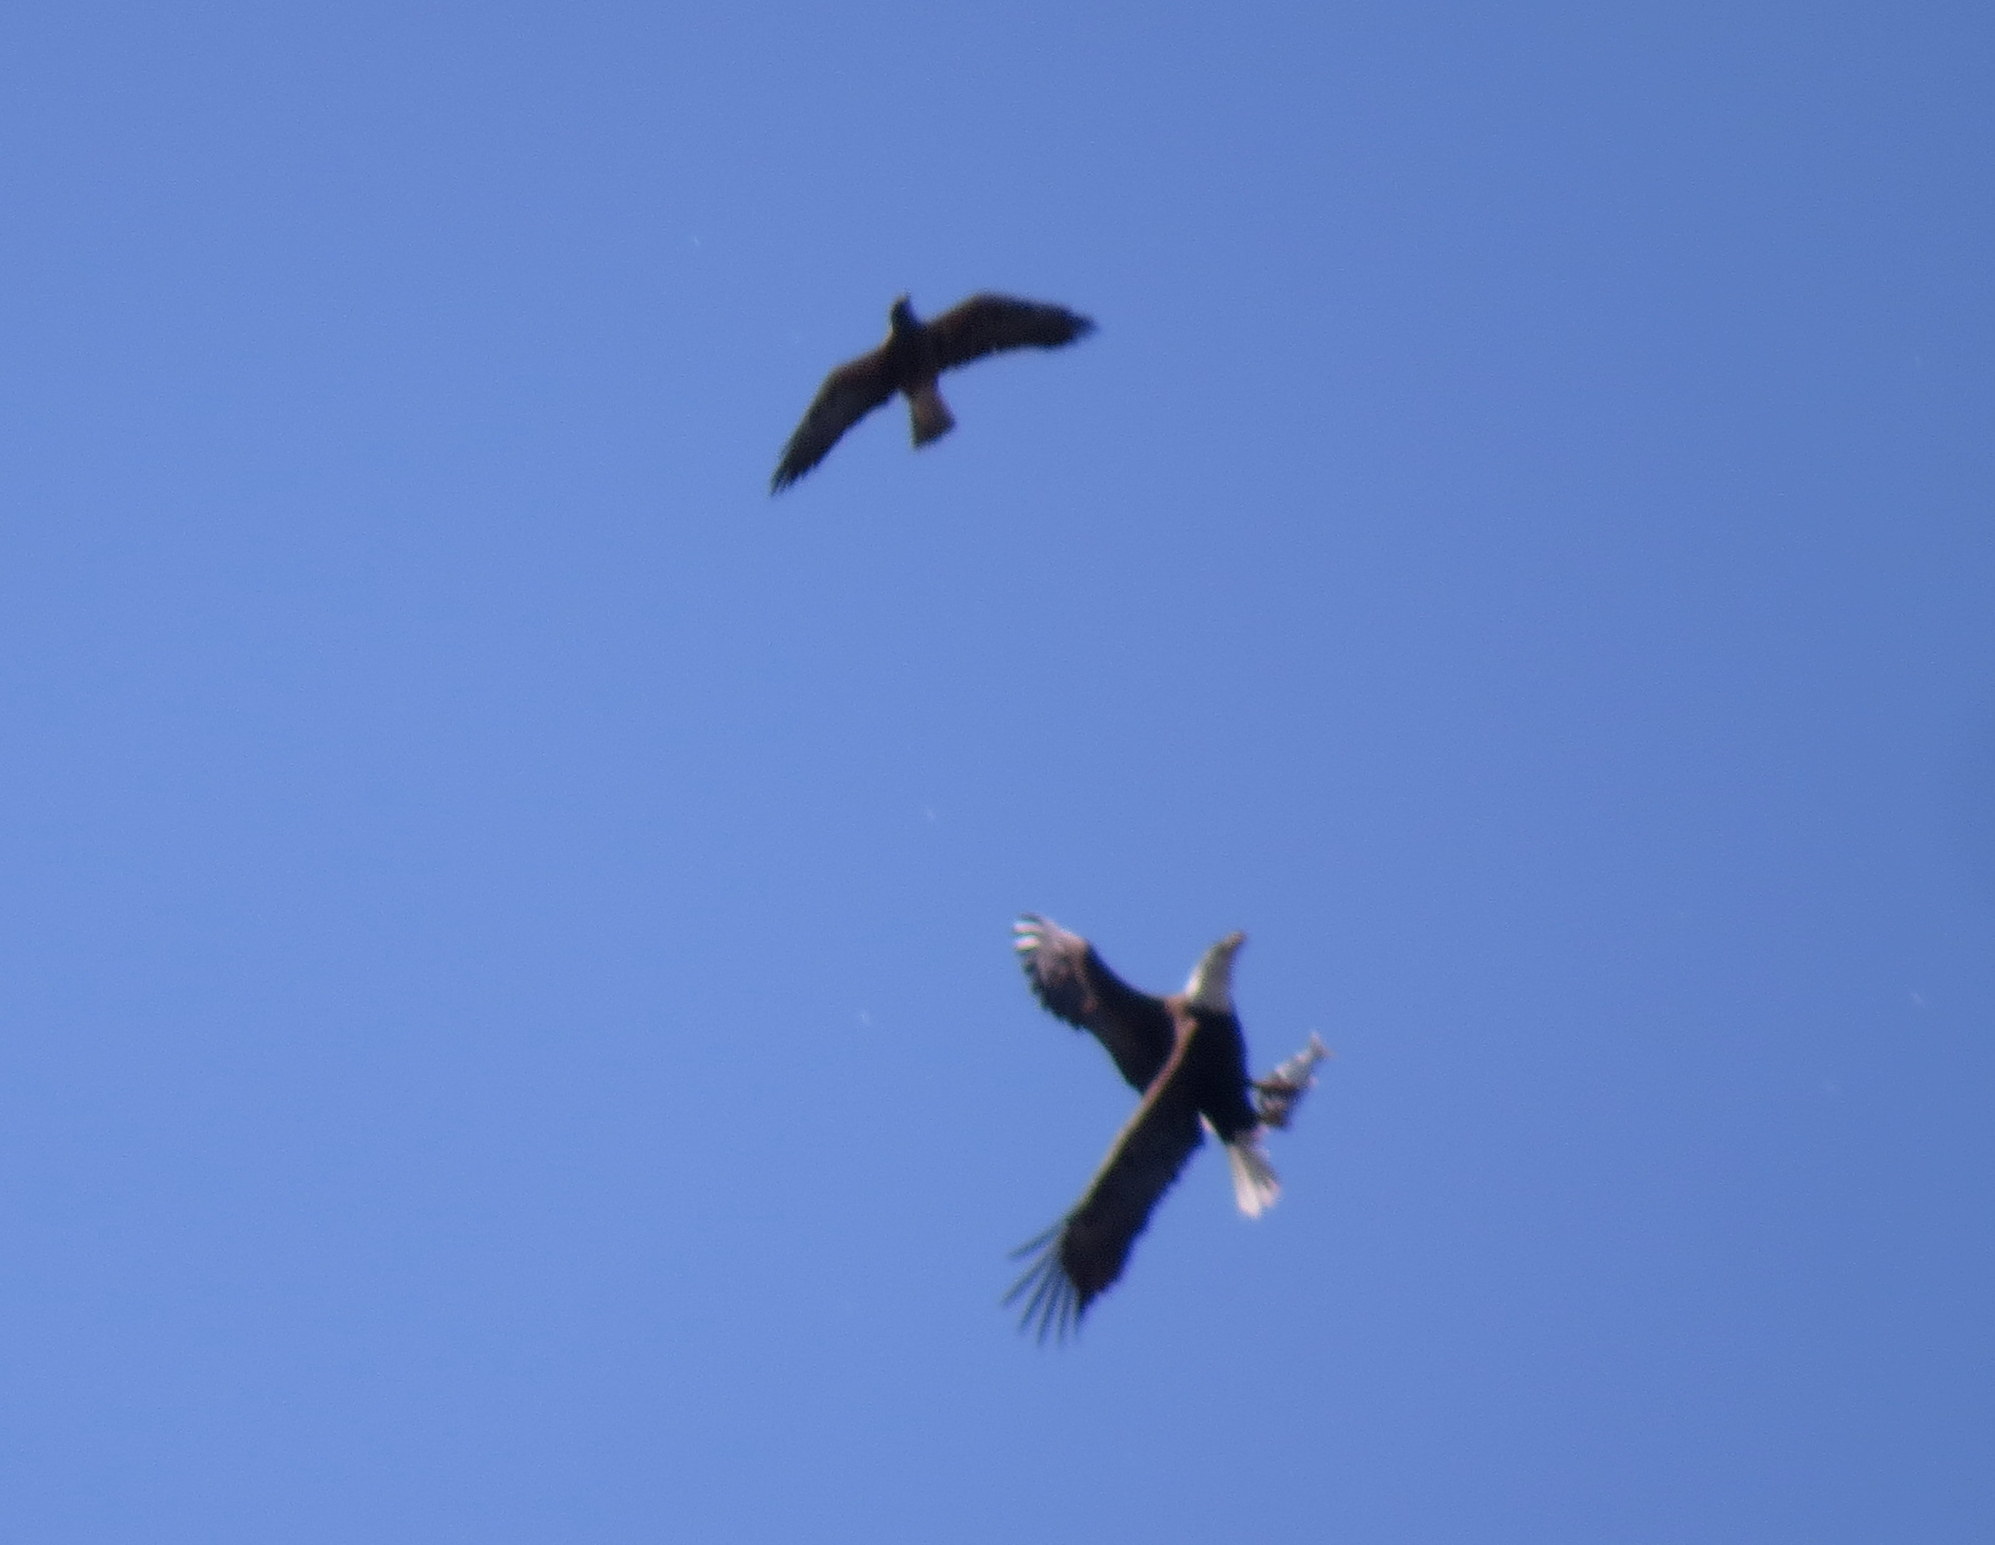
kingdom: Animalia
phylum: Chordata
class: Aves
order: Accipitriformes
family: Accipitridae
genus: Haliaeetus
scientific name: Haliaeetus leucocephalus
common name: Bald eagle
